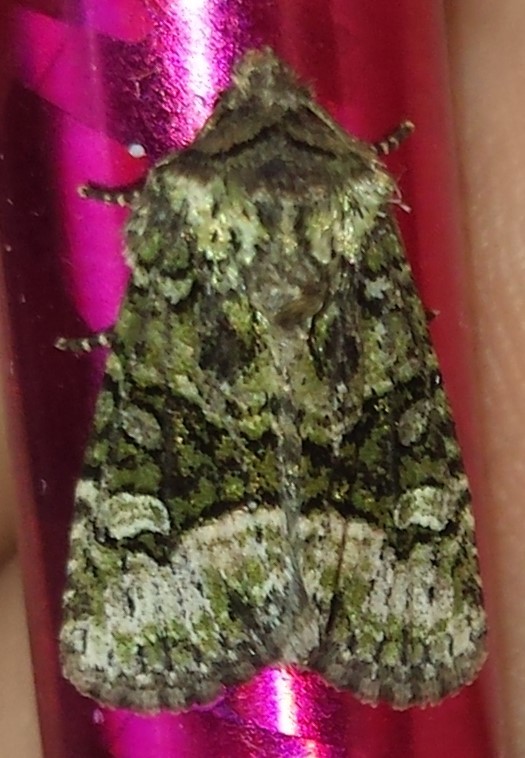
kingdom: Animalia
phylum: Arthropoda
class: Insecta
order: Lepidoptera
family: Noctuidae
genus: Lacinipolia
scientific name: Lacinipolia olivacea
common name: Olive arches moth
